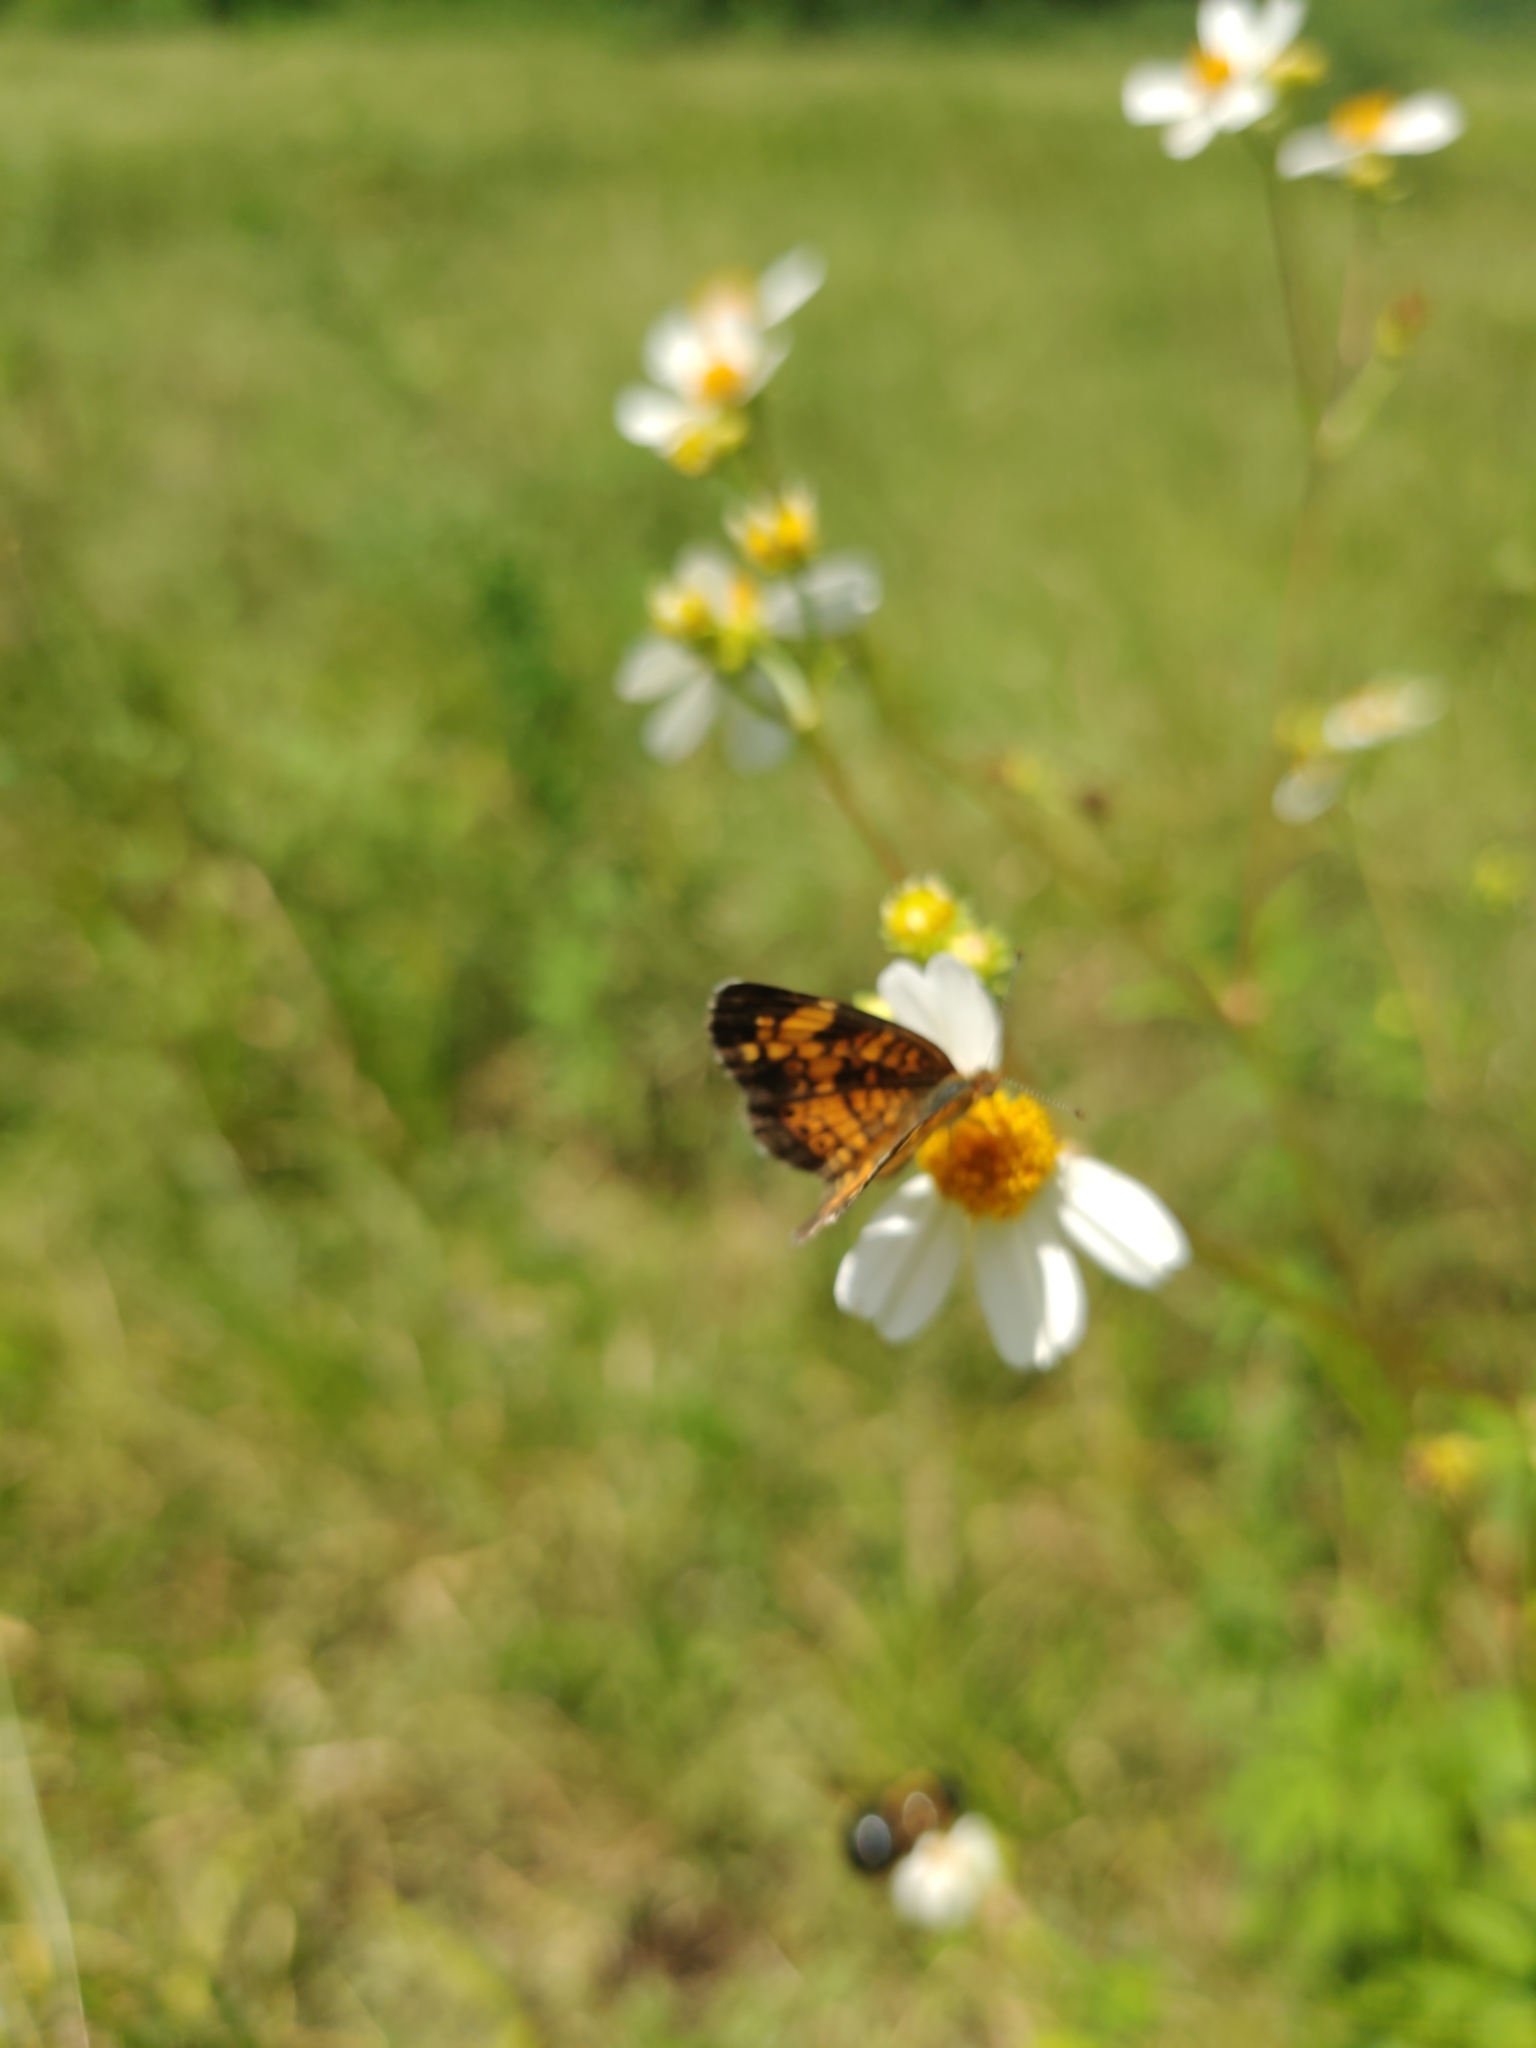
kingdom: Animalia
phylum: Arthropoda
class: Insecta
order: Lepidoptera
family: Nymphalidae
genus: Phyciodes
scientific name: Phyciodes tharos
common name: Pearl crescent
